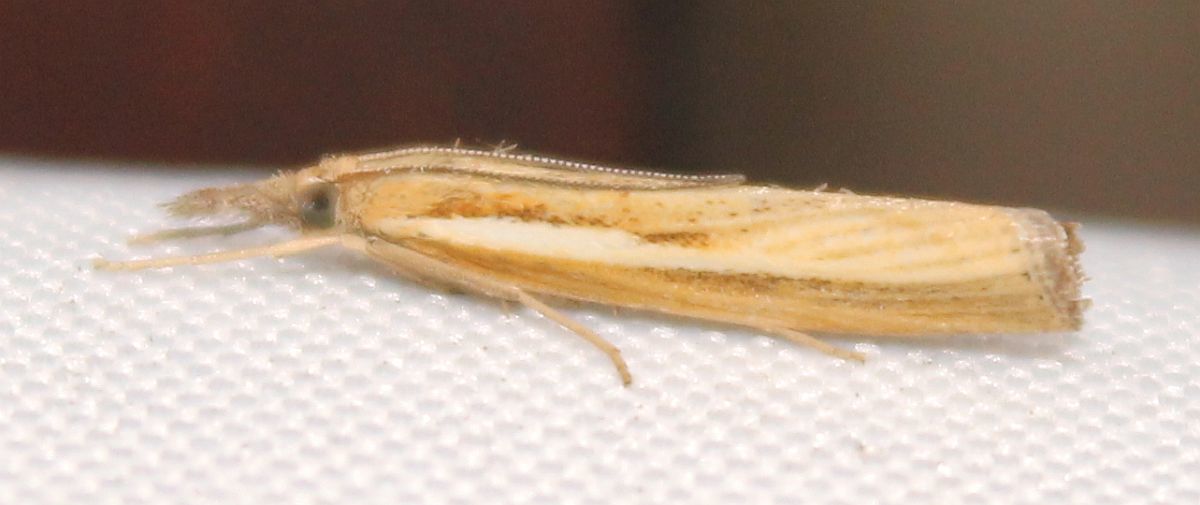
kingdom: Animalia
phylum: Arthropoda
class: Insecta
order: Lepidoptera
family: Crambidae
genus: Agriphila
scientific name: Agriphila tristellus
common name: Common grass-veneer
